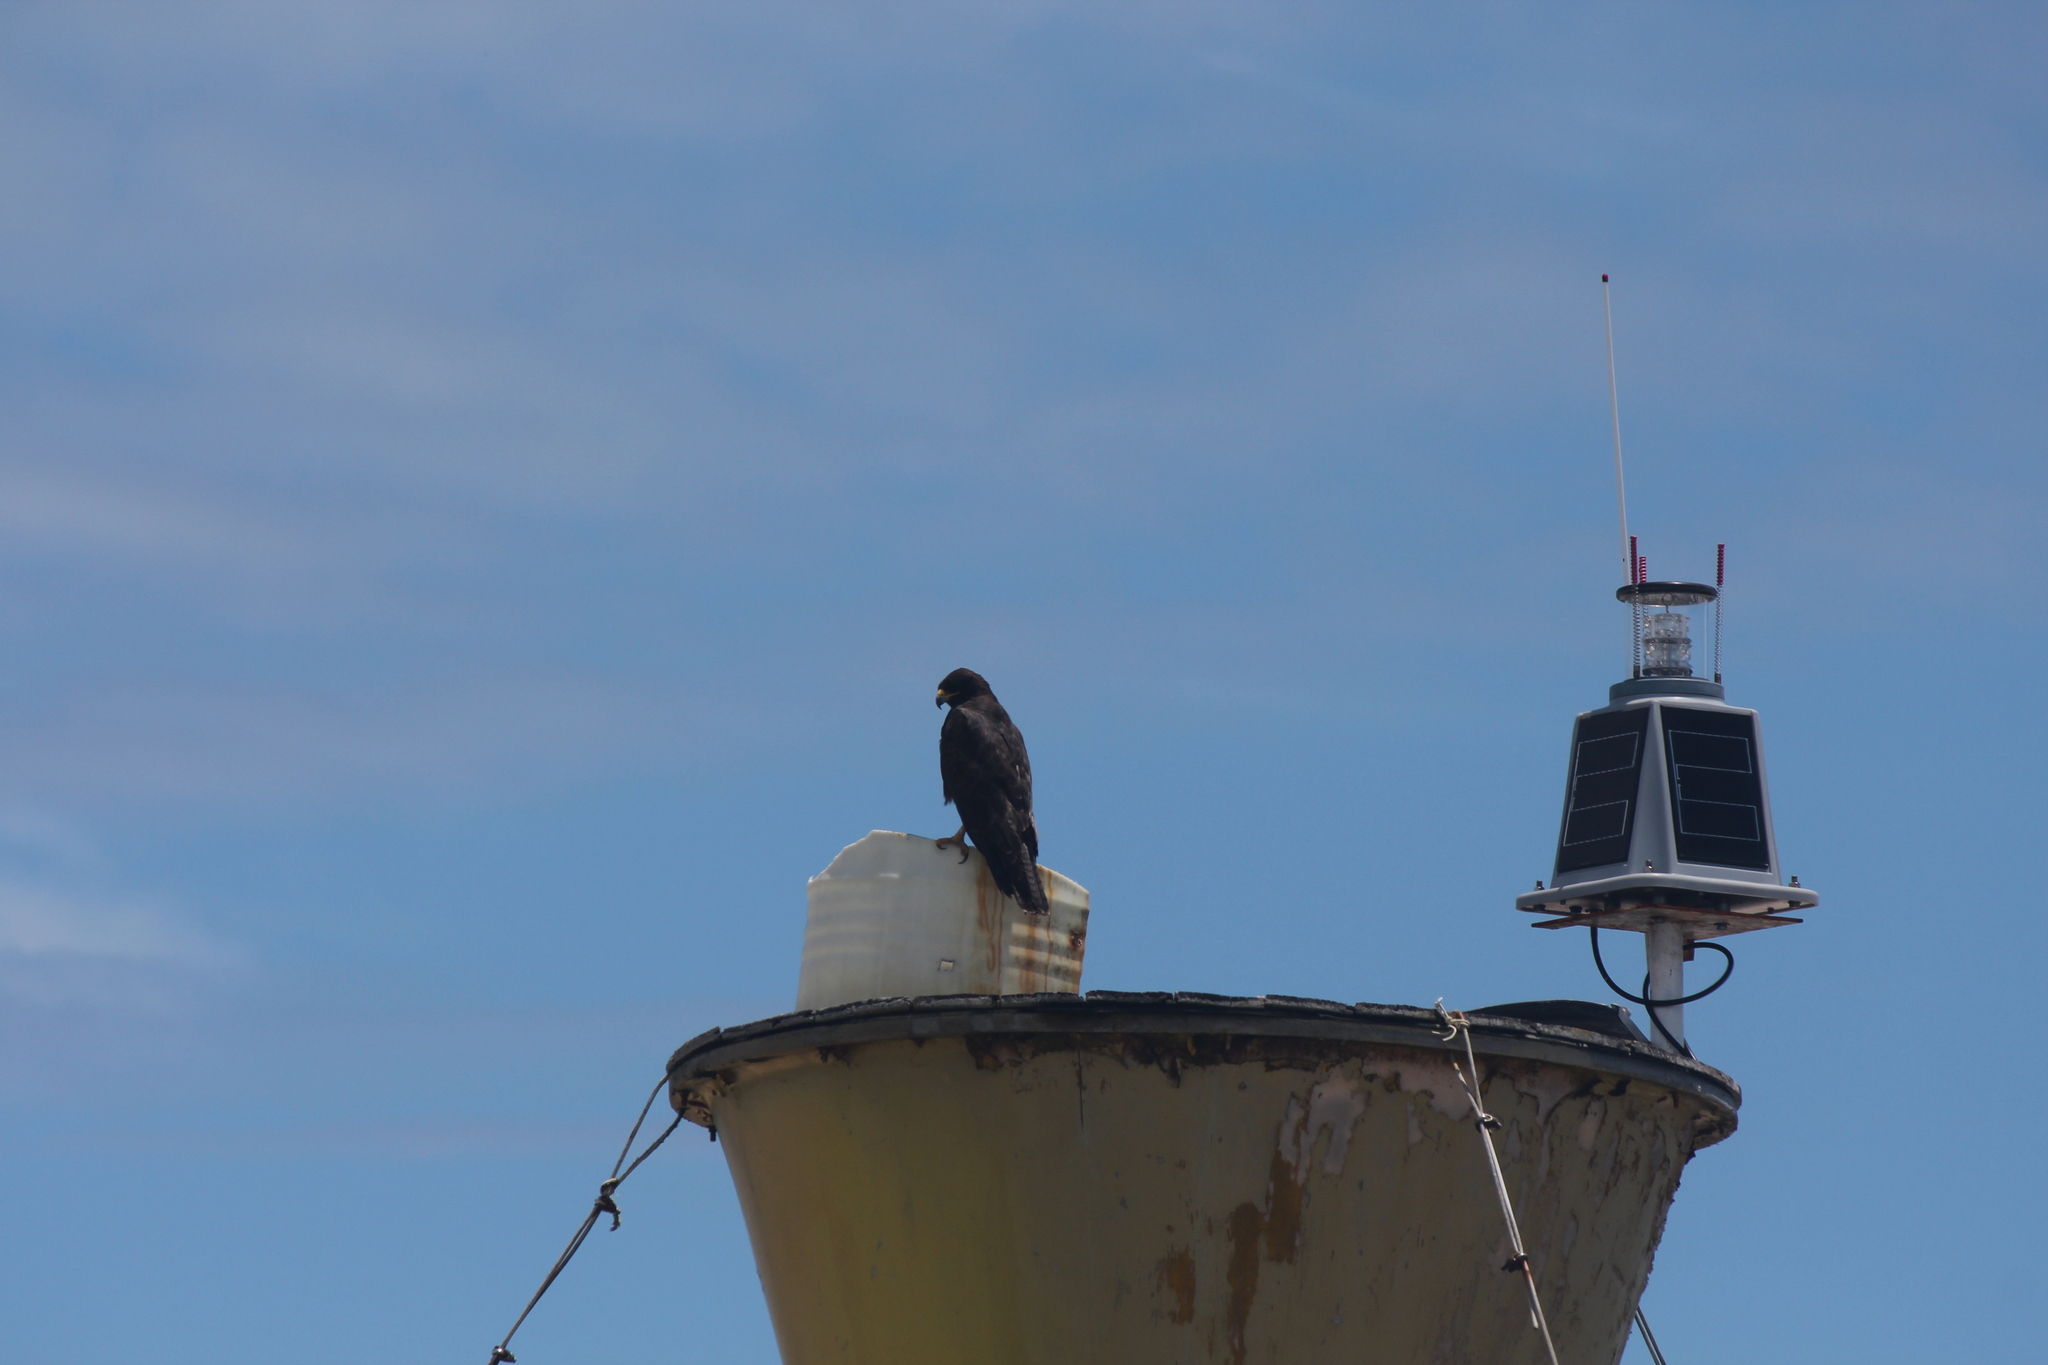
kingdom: Animalia
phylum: Chordata
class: Aves
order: Accipitriformes
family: Accipitridae
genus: Buteo
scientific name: Buteo galapagoensis
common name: Galapagos hawk
